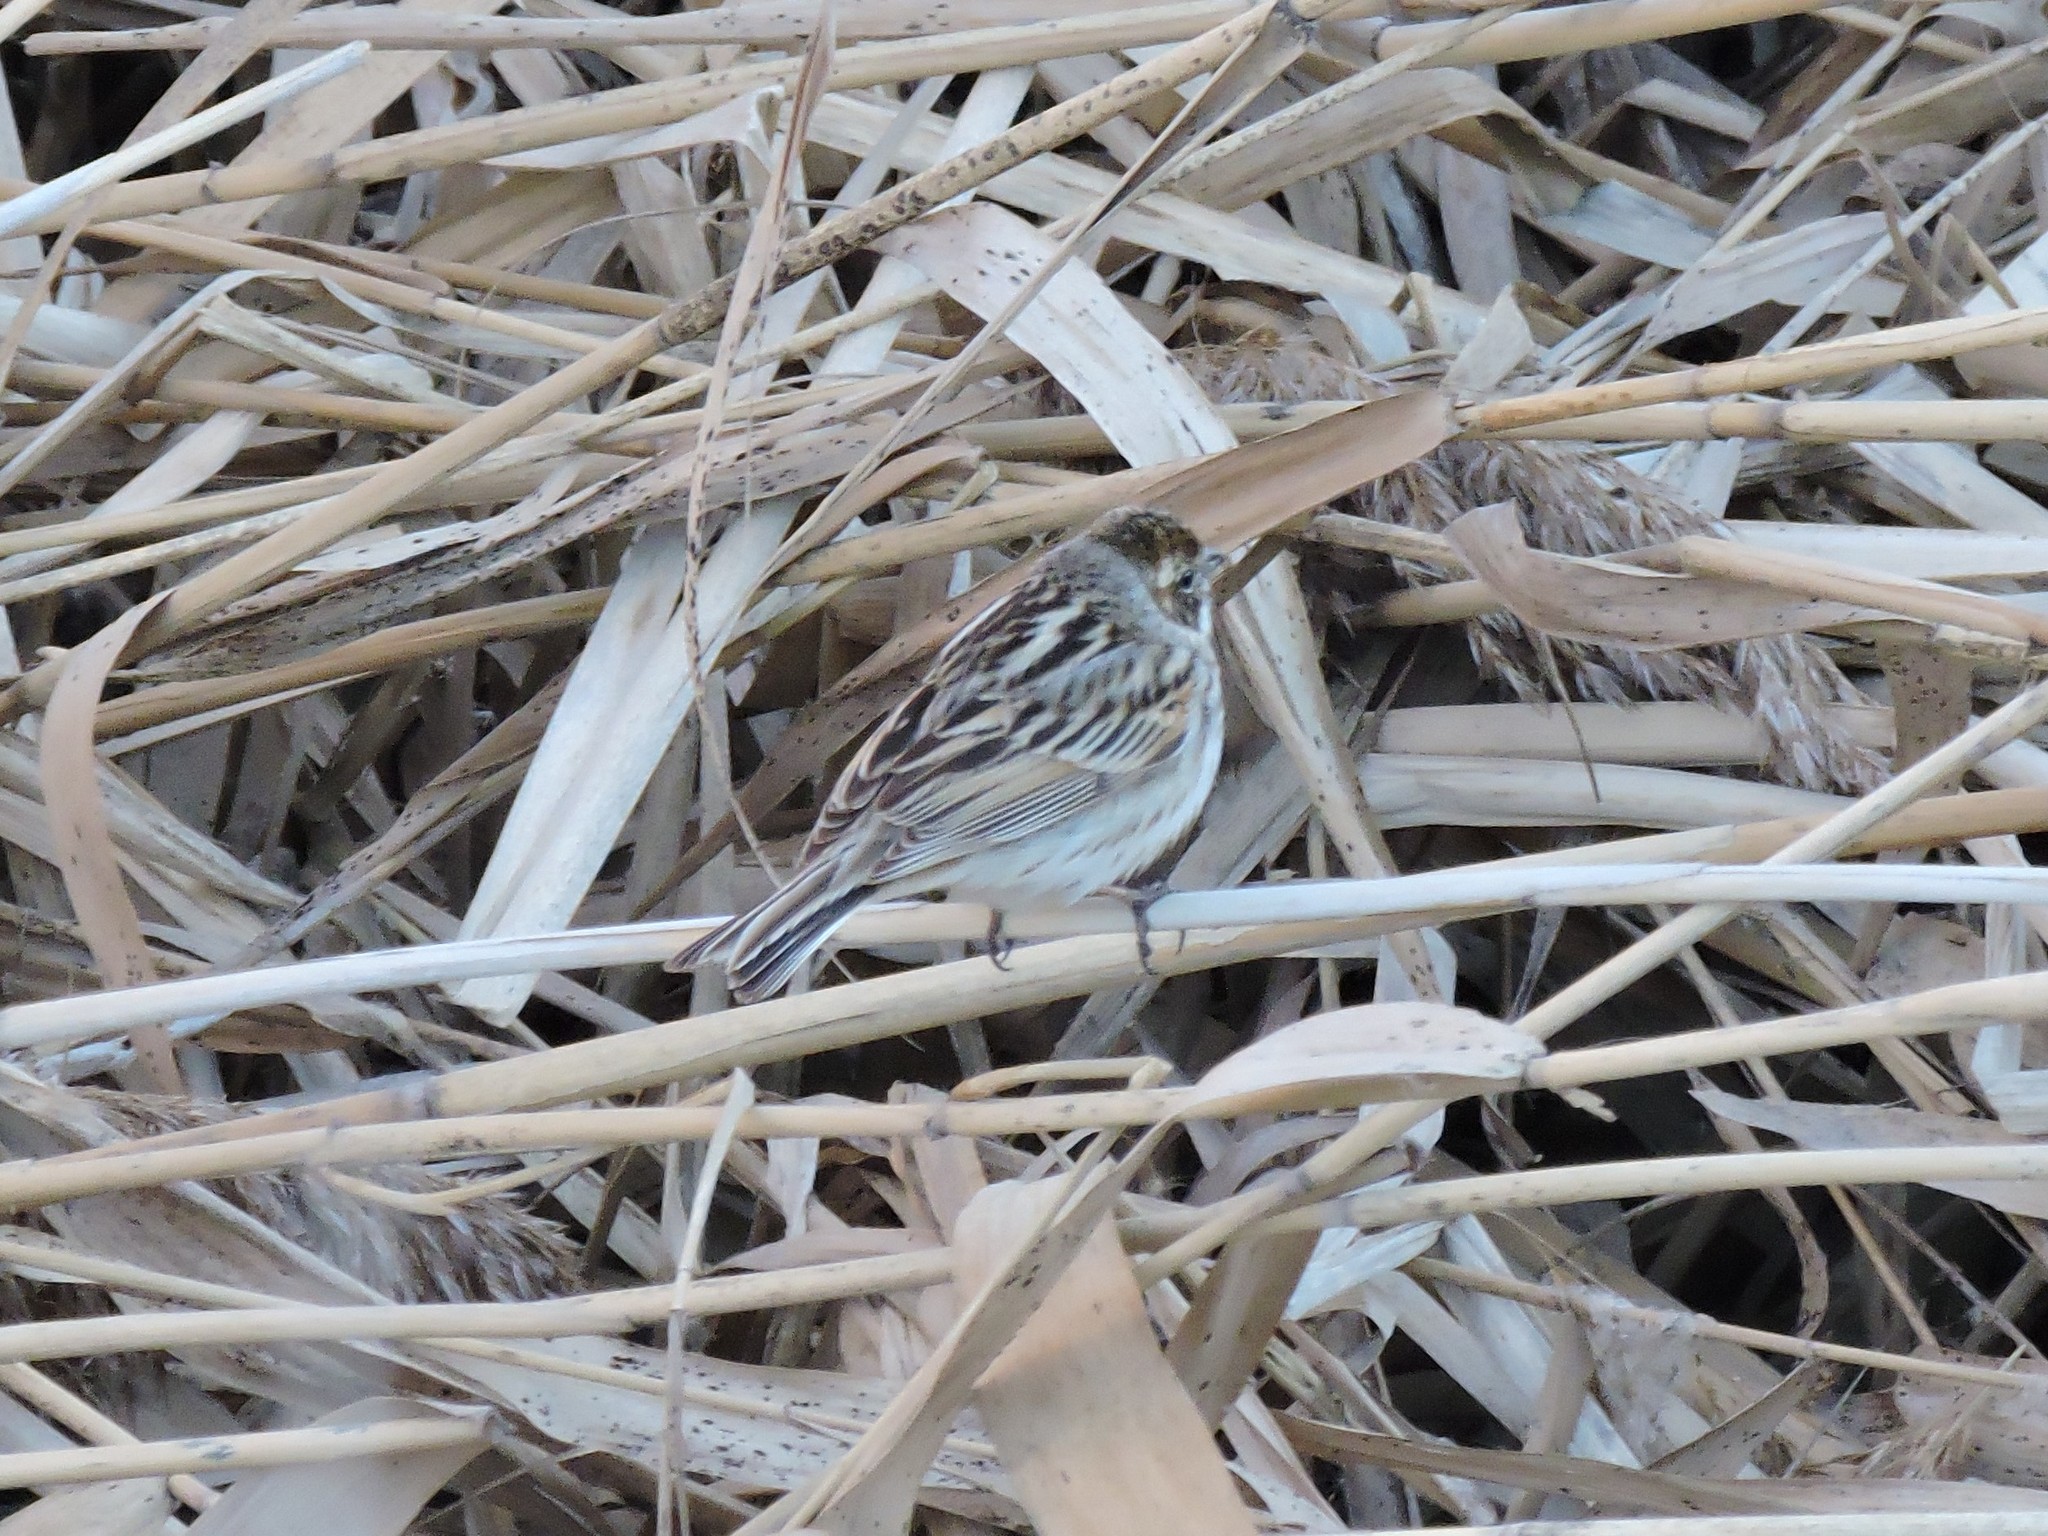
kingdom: Animalia
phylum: Chordata
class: Aves
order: Passeriformes
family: Emberizidae
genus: Emberiza
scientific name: Emberiza schoeniclus
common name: Reed bunting
